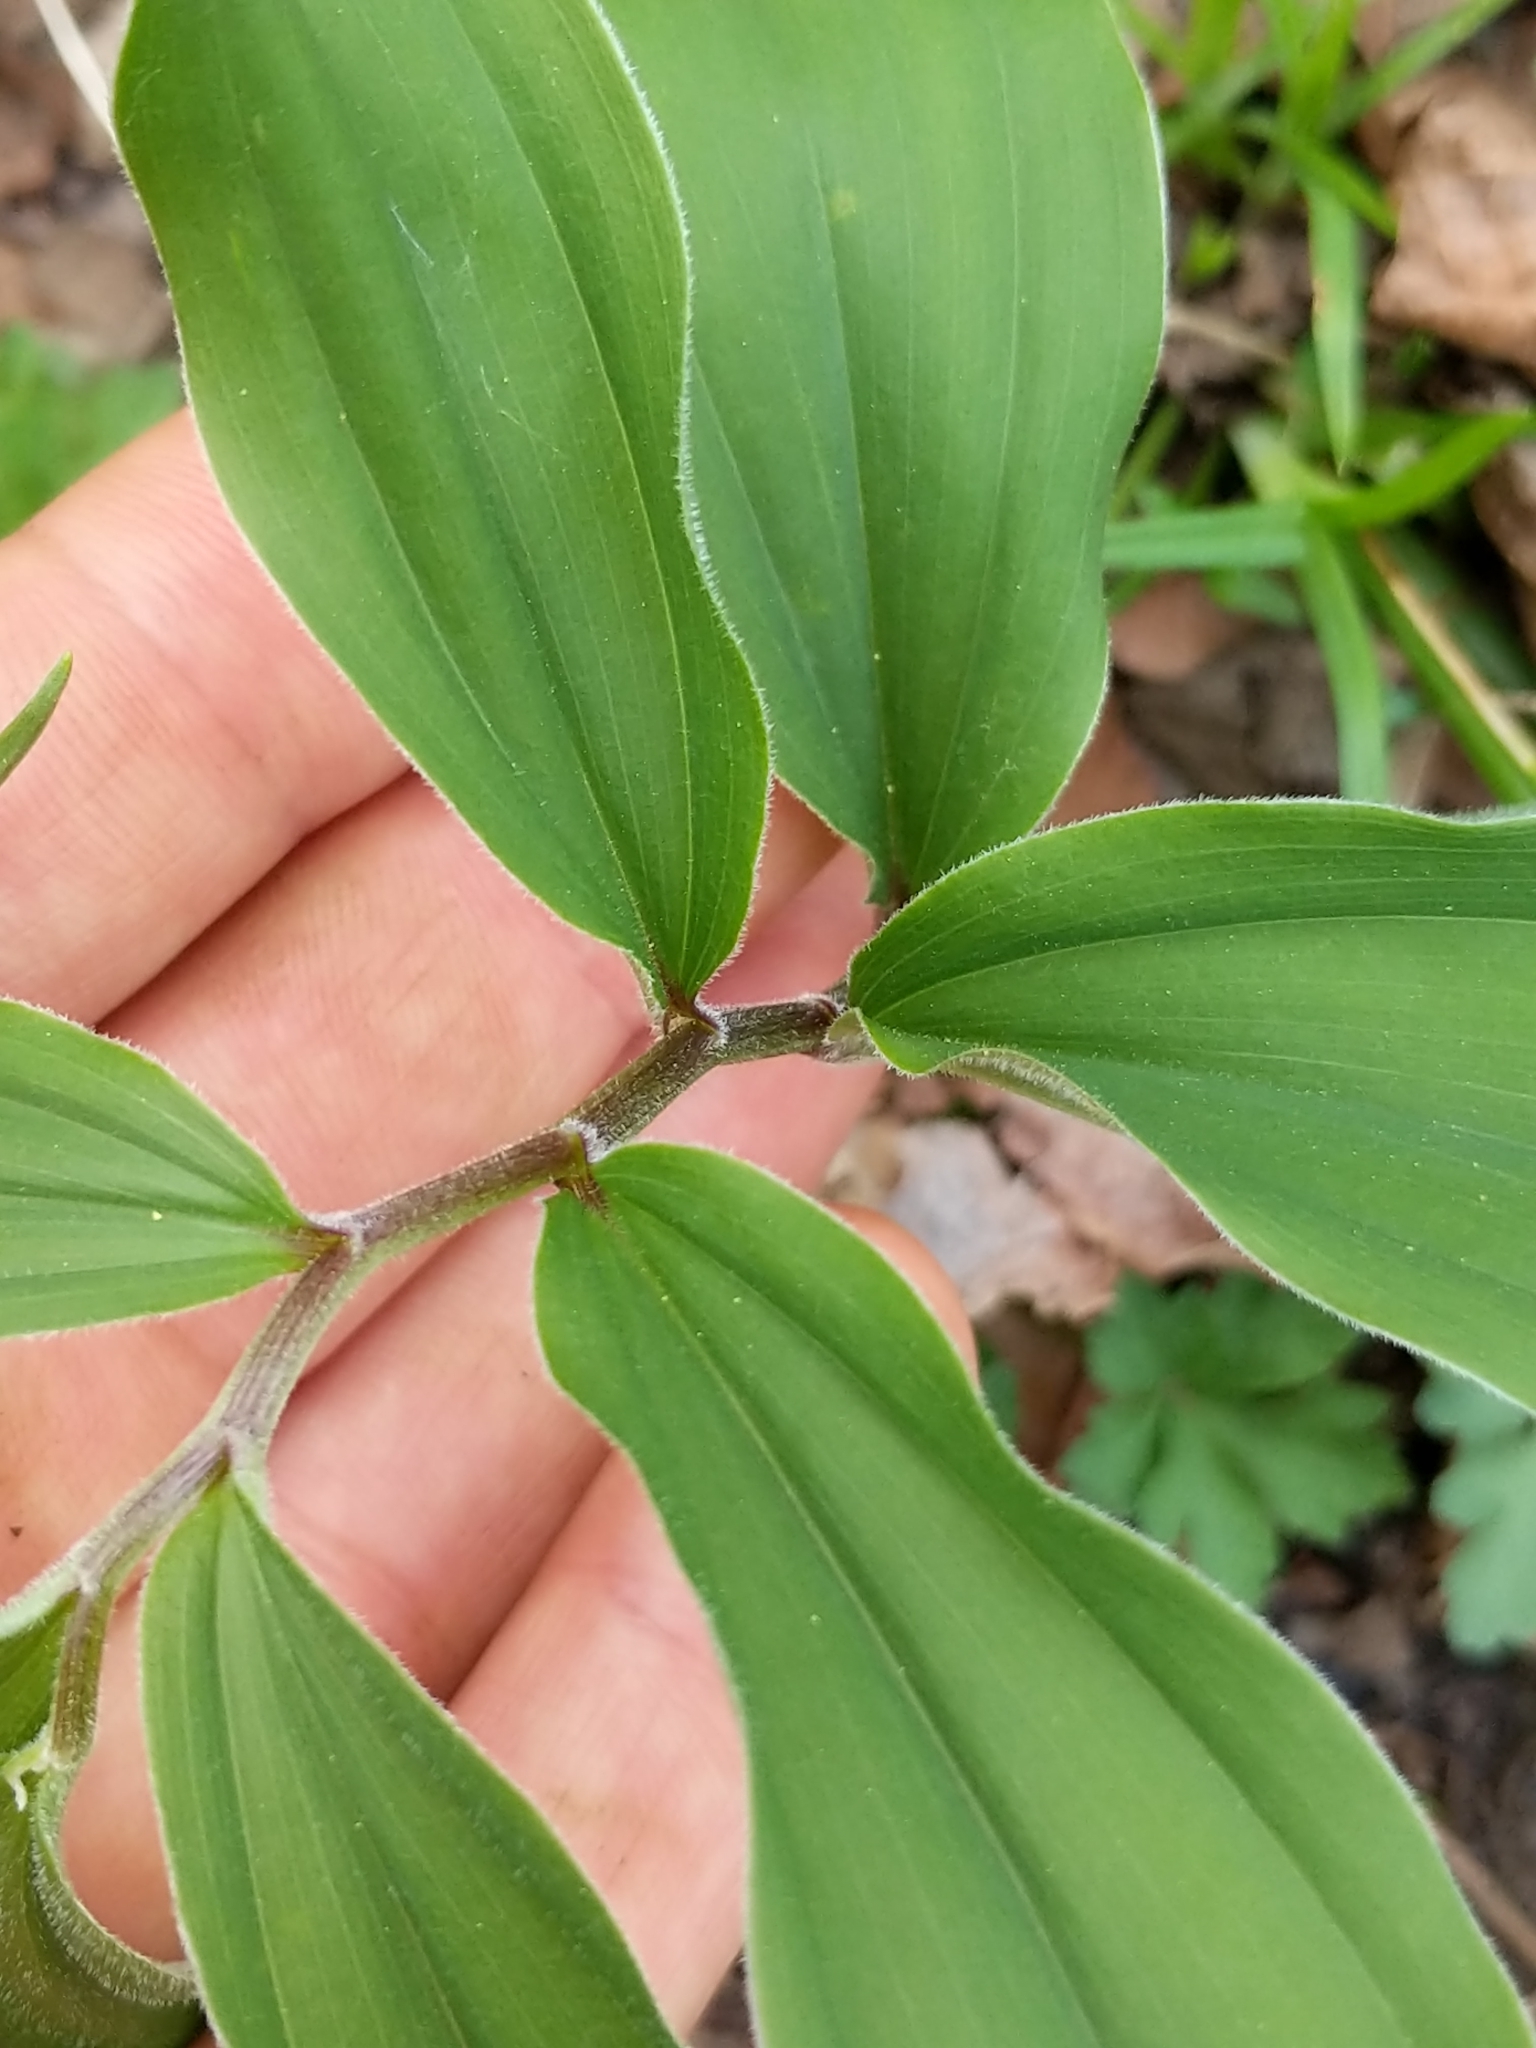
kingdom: Plantae
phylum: Tracheophyta
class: Liliopsida
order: Asparagales
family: Asparagaceae
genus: Maianthemum
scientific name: Maianthemum racemosum
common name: False spikenard
